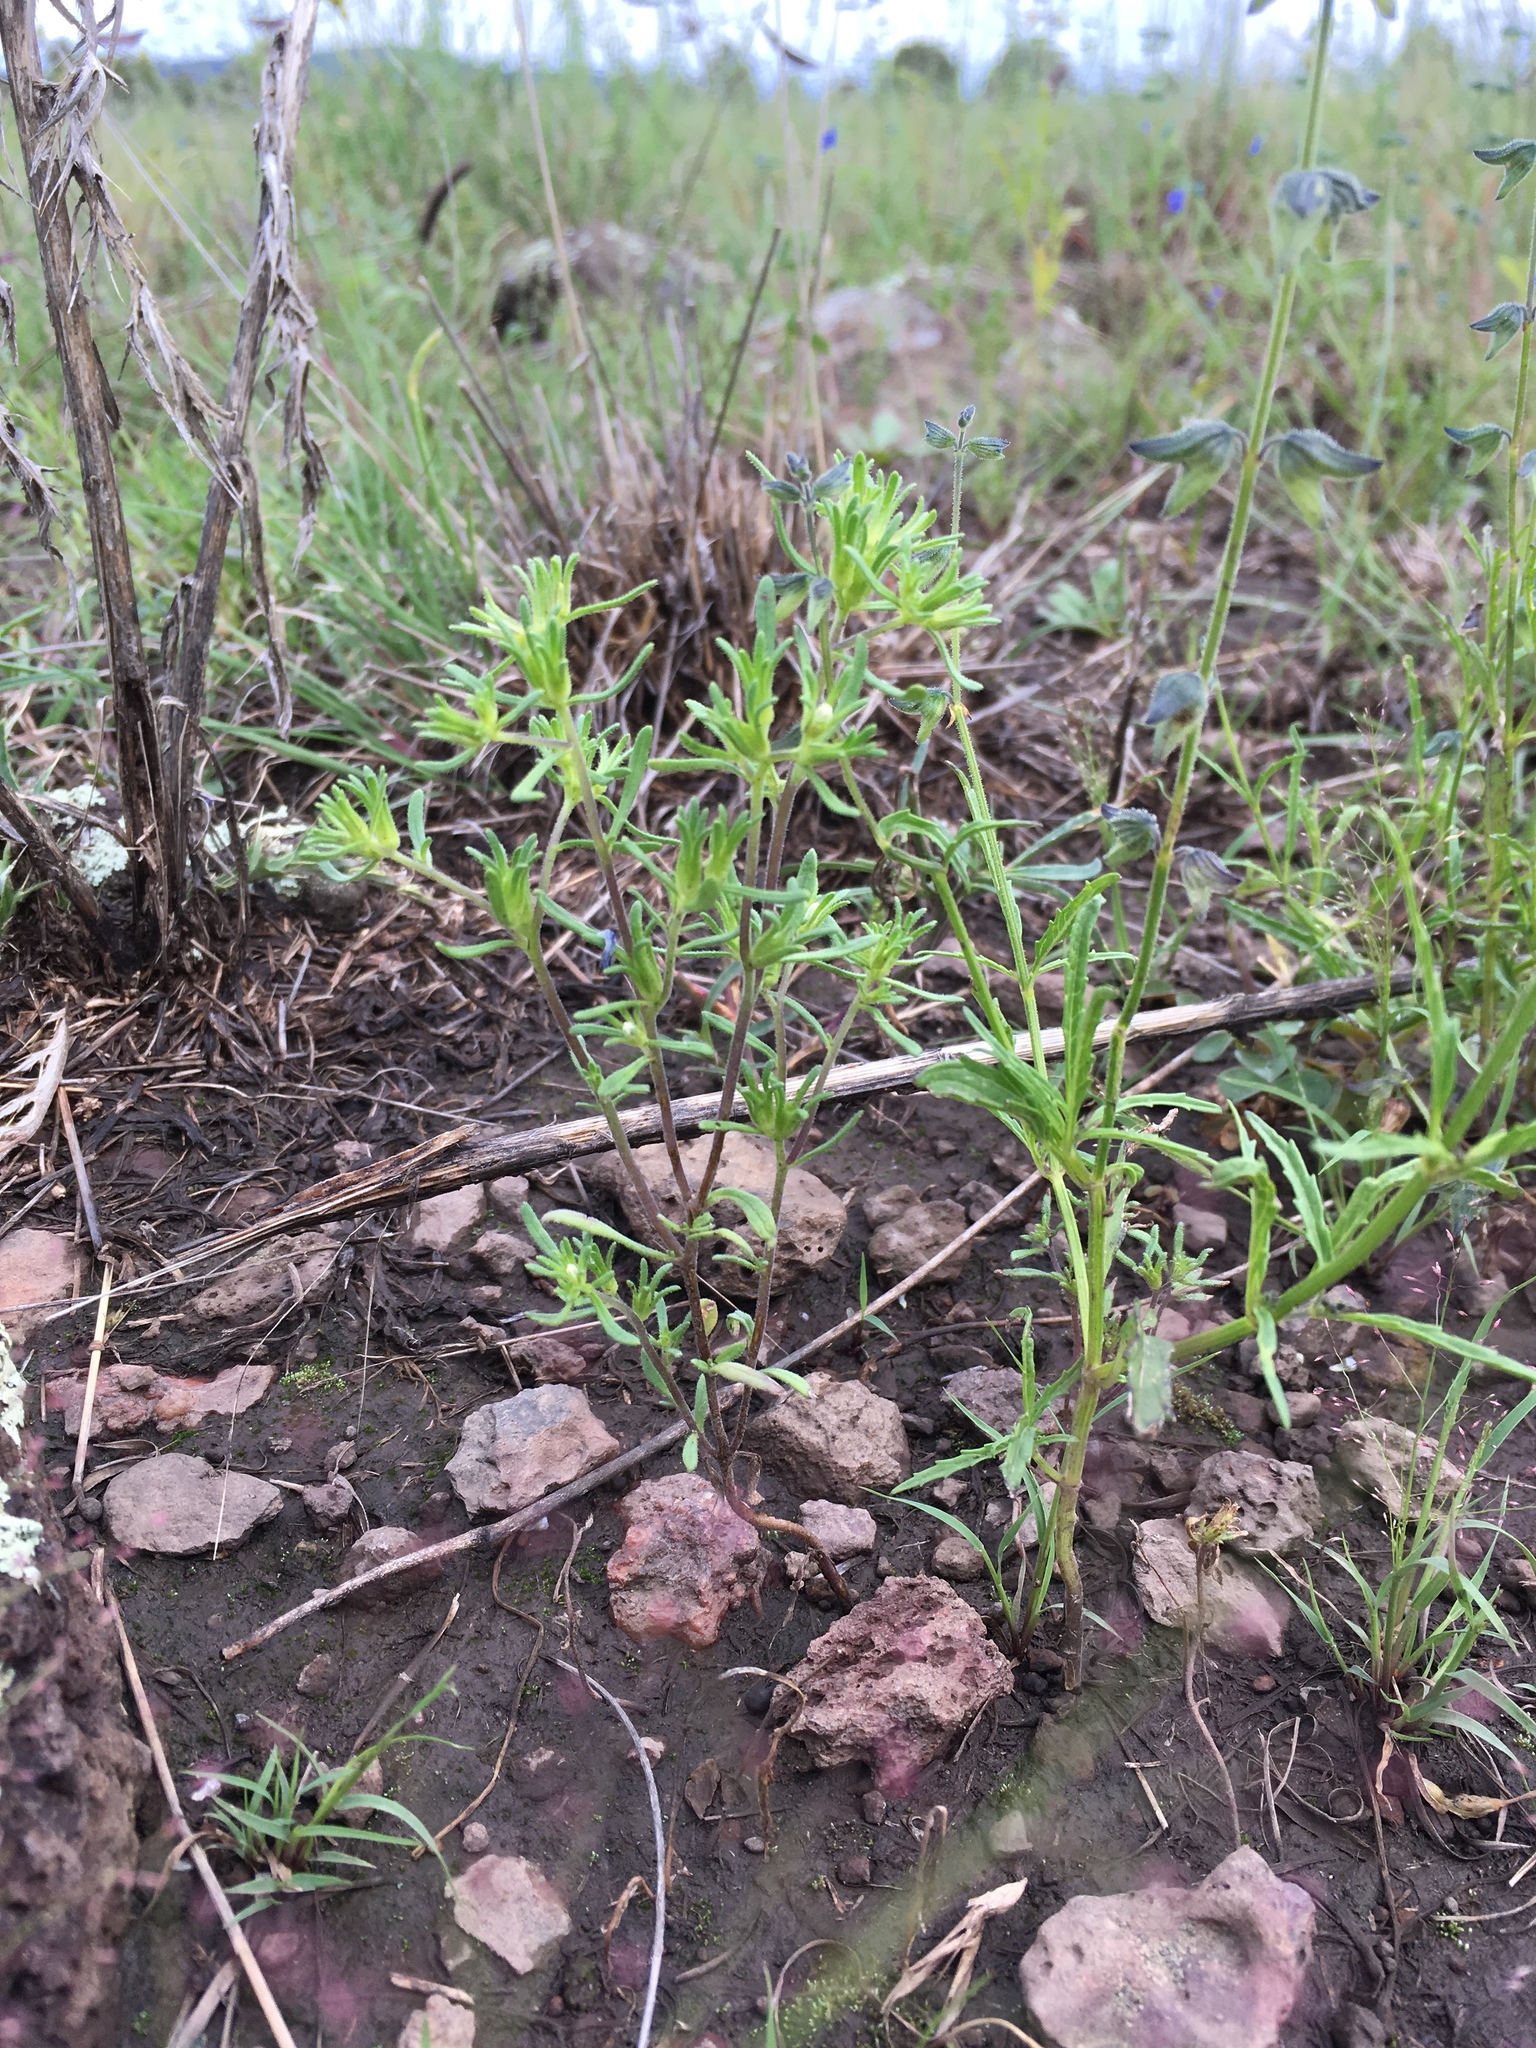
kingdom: Plantae
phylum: Tracheophyta
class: Magnoliopsida
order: Boraginales
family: Namaceae
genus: Nama
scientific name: Nama dichotoma
